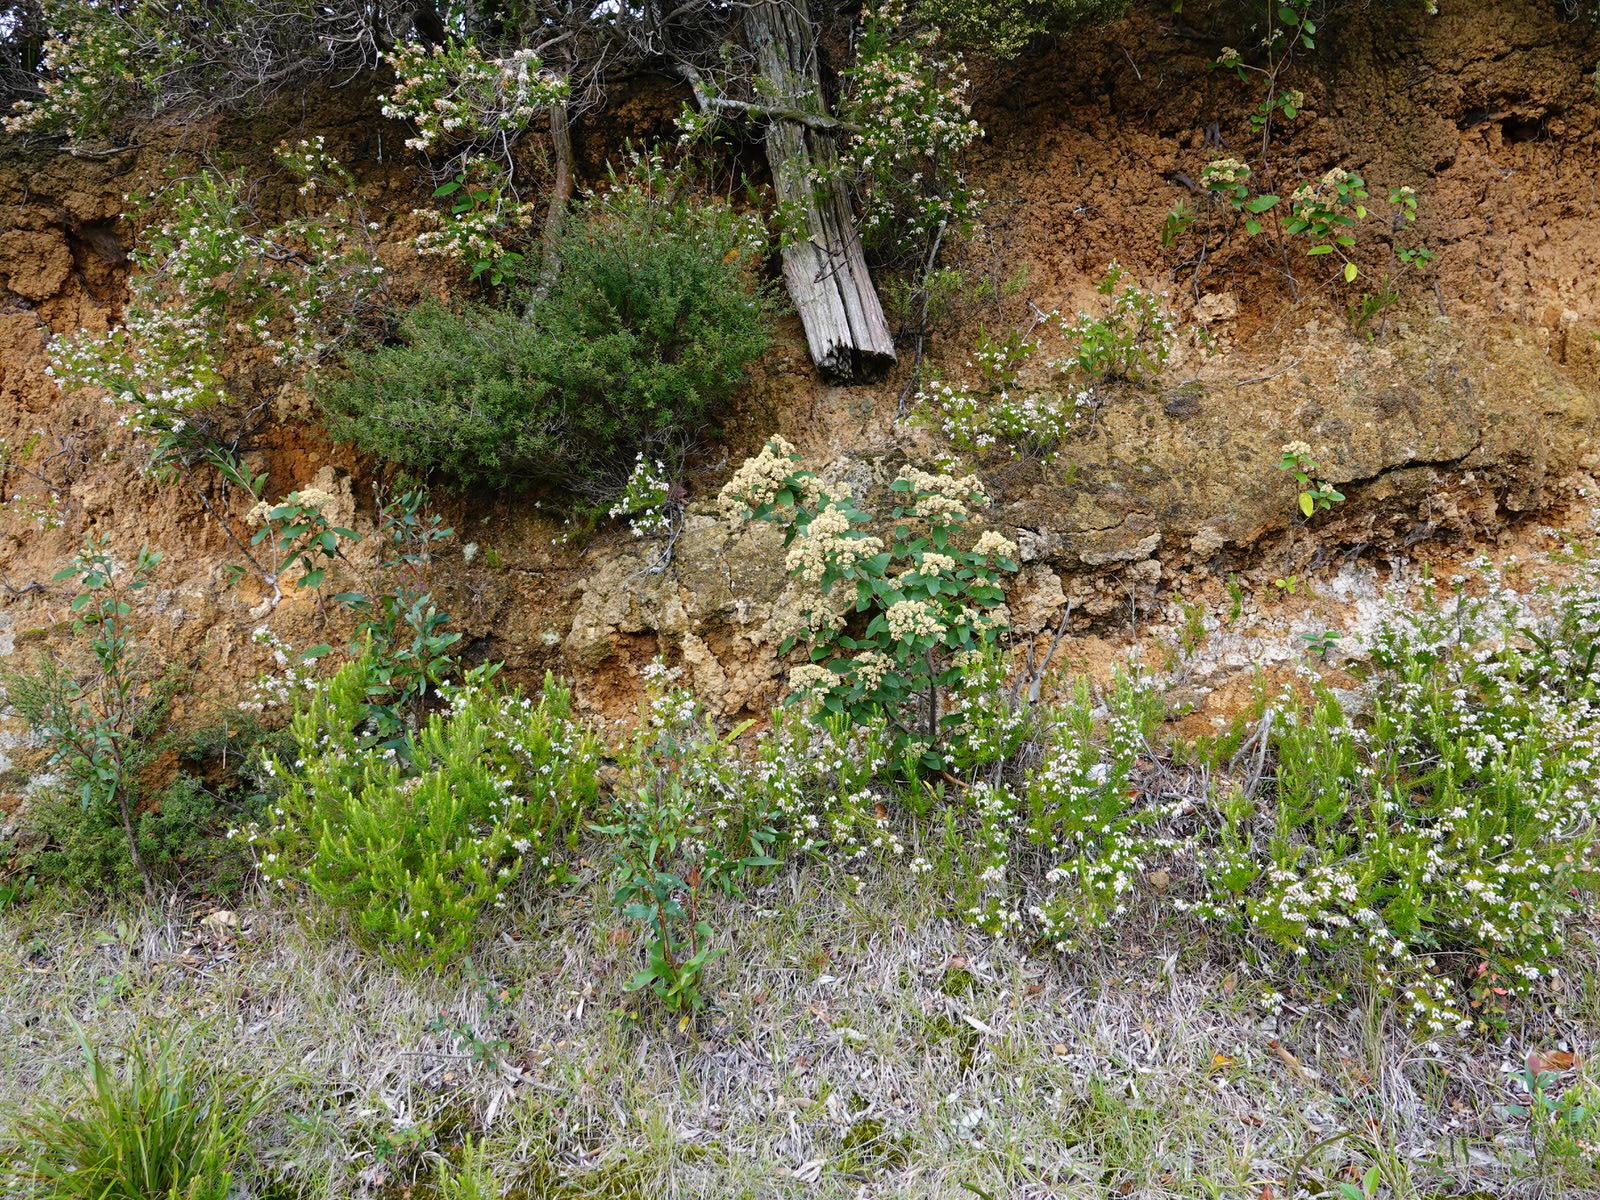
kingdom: Plantae
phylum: Tracheophyta
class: Magnoliopsida
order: Rosales
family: Rhamnaceae
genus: Pomaderris
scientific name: Pomaderris kumeraho
